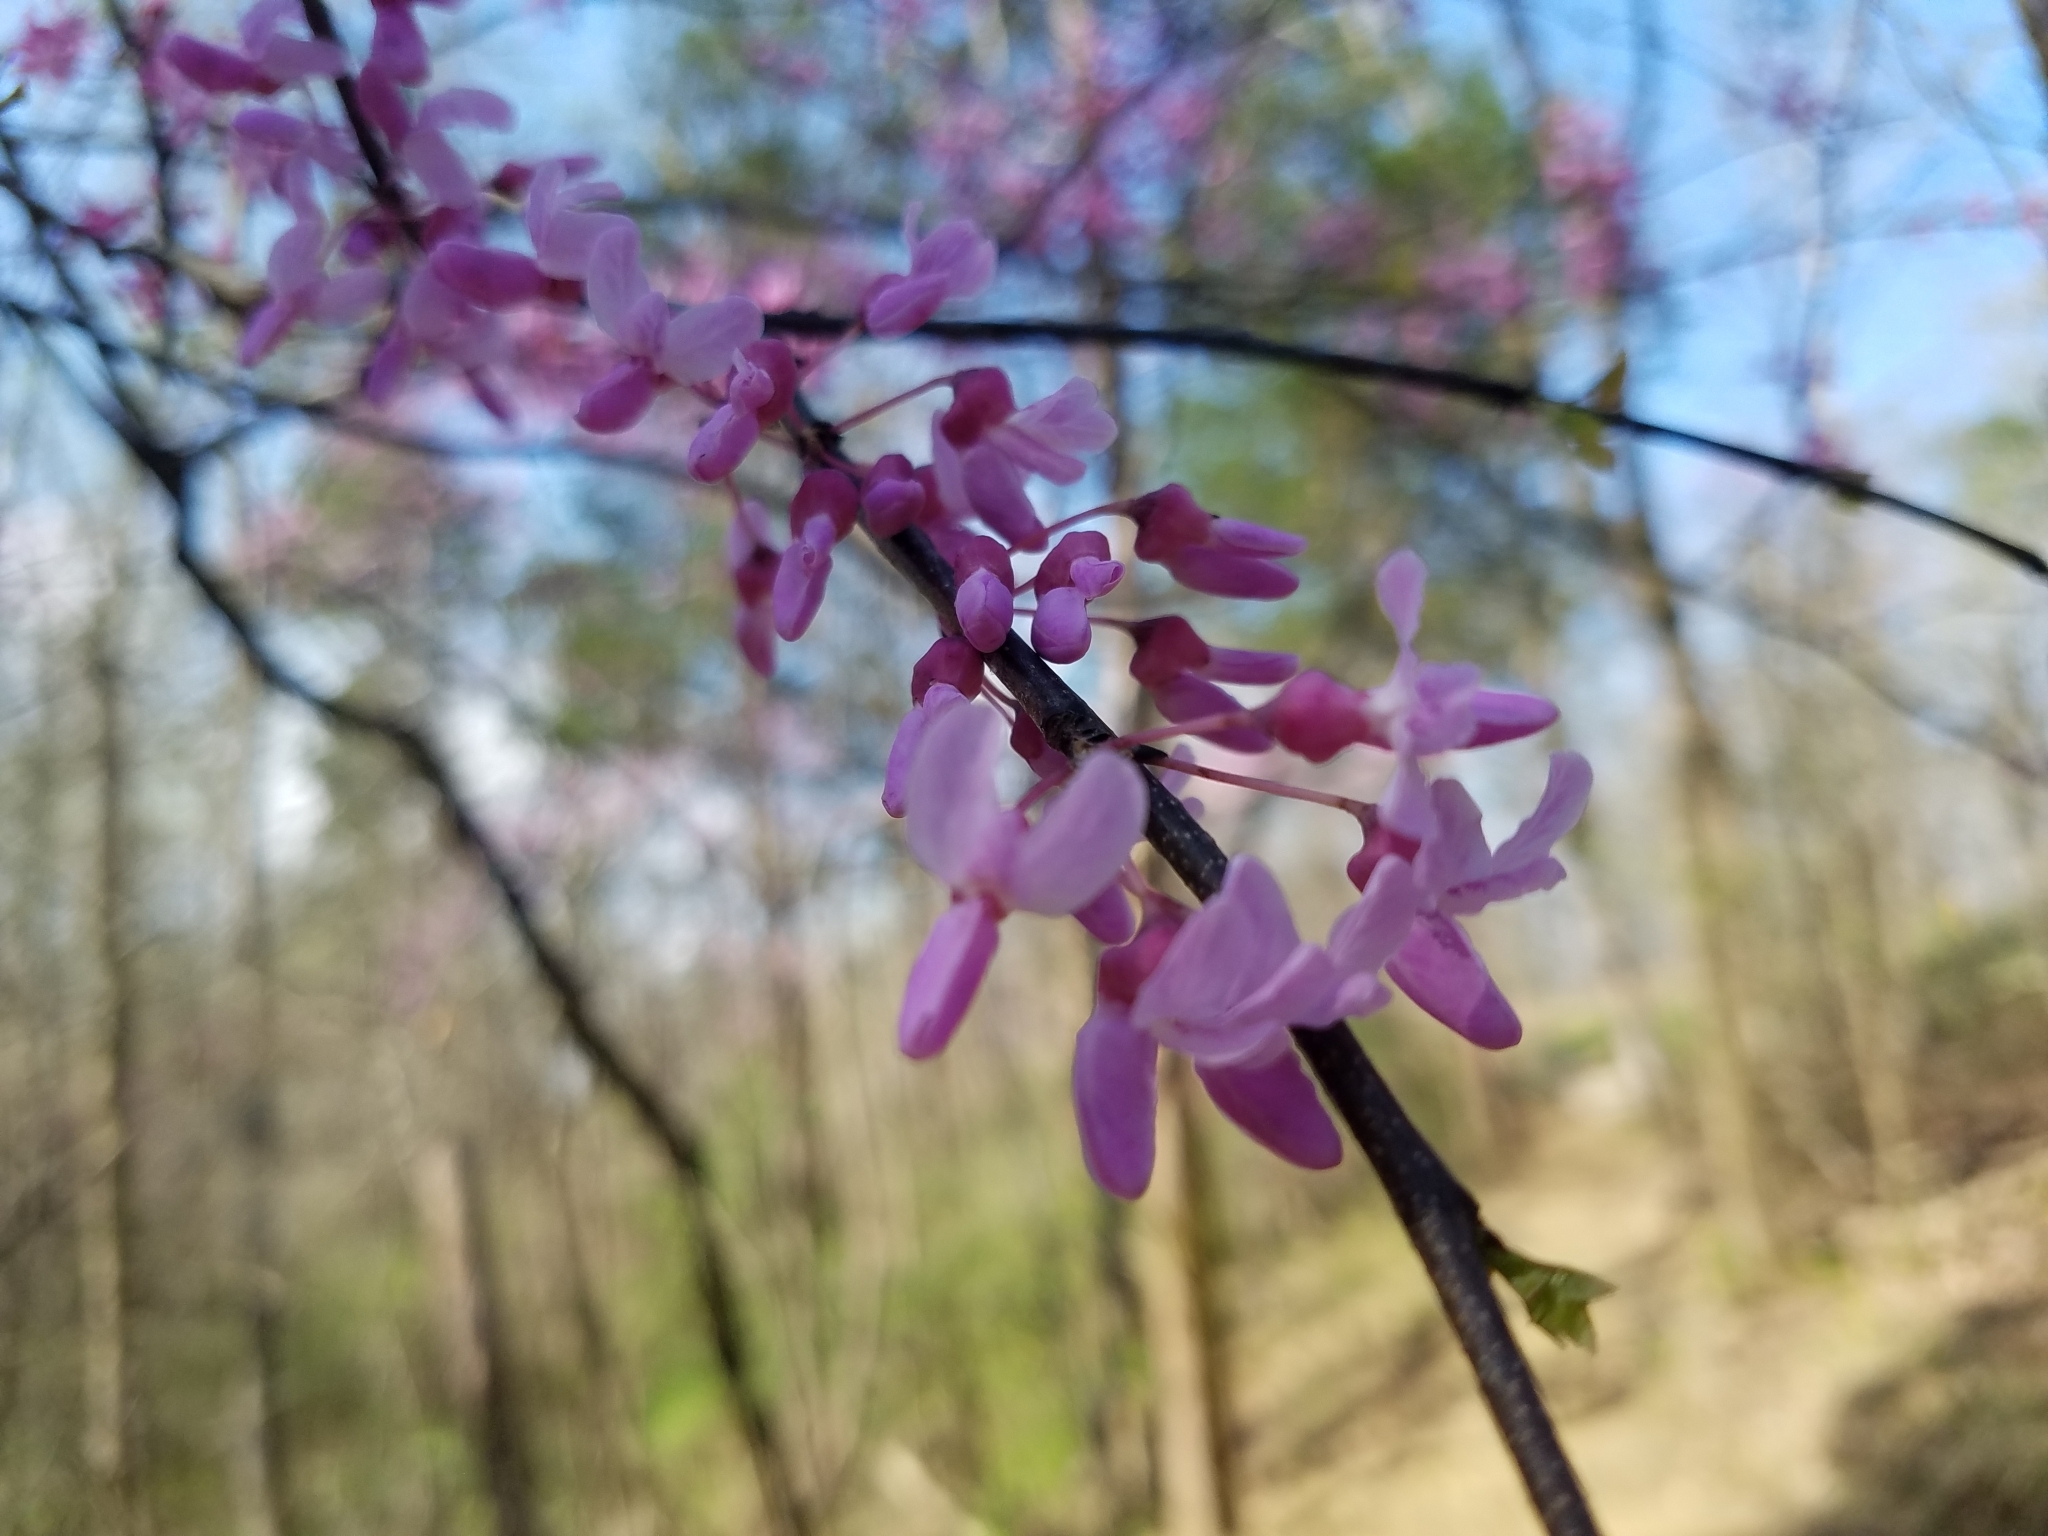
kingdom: Plantae
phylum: Tracheophyta
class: Magnoliopsida
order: Fabales
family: Fabaceae
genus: Cercis
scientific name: Cercis canadensis
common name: Eastern redbud
